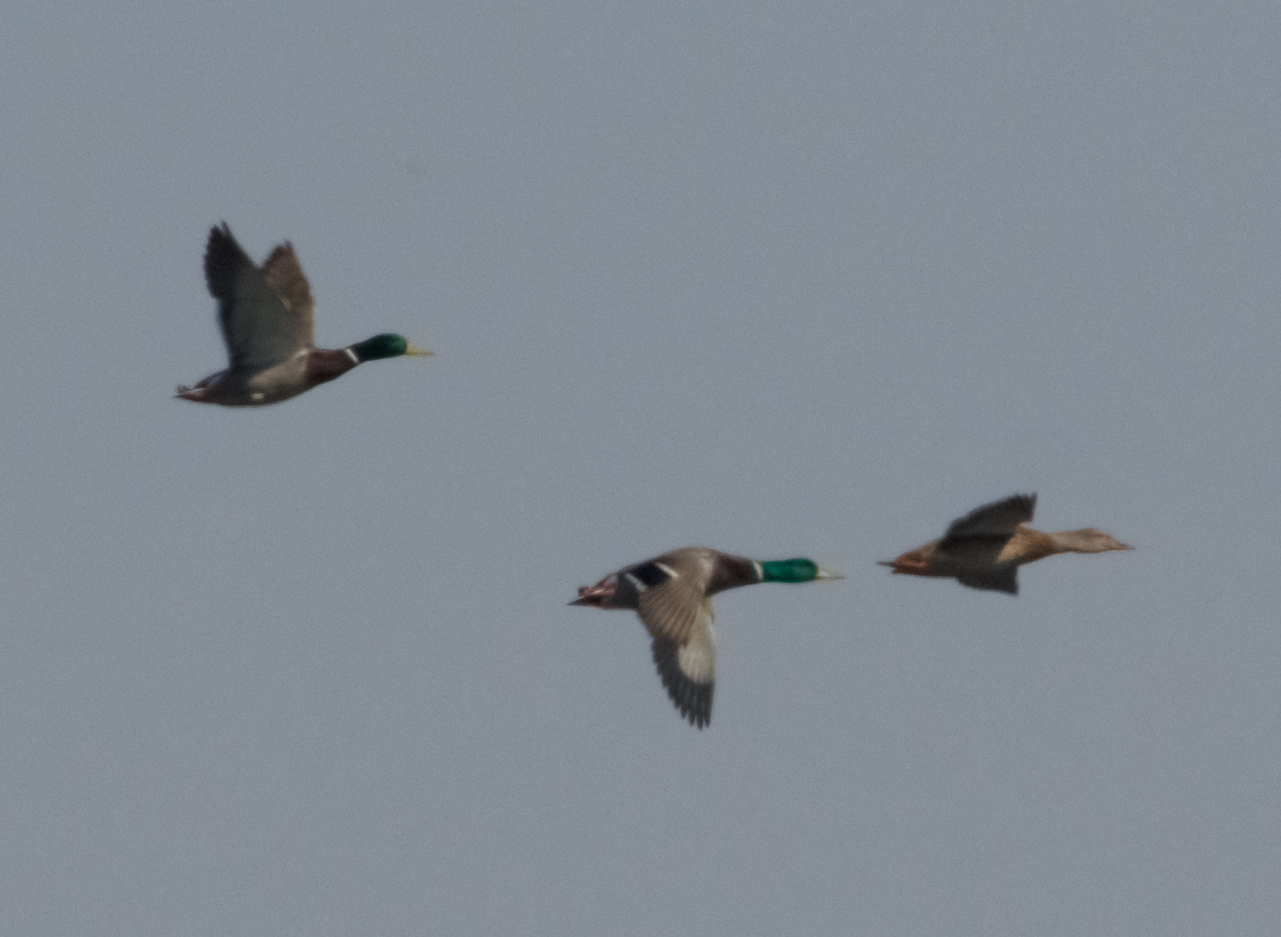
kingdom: Animalia
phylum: Chordata
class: Aves
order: Anseriformes
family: Anatidae
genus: Anas
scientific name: Anas platyrhynchos
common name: Mallard
